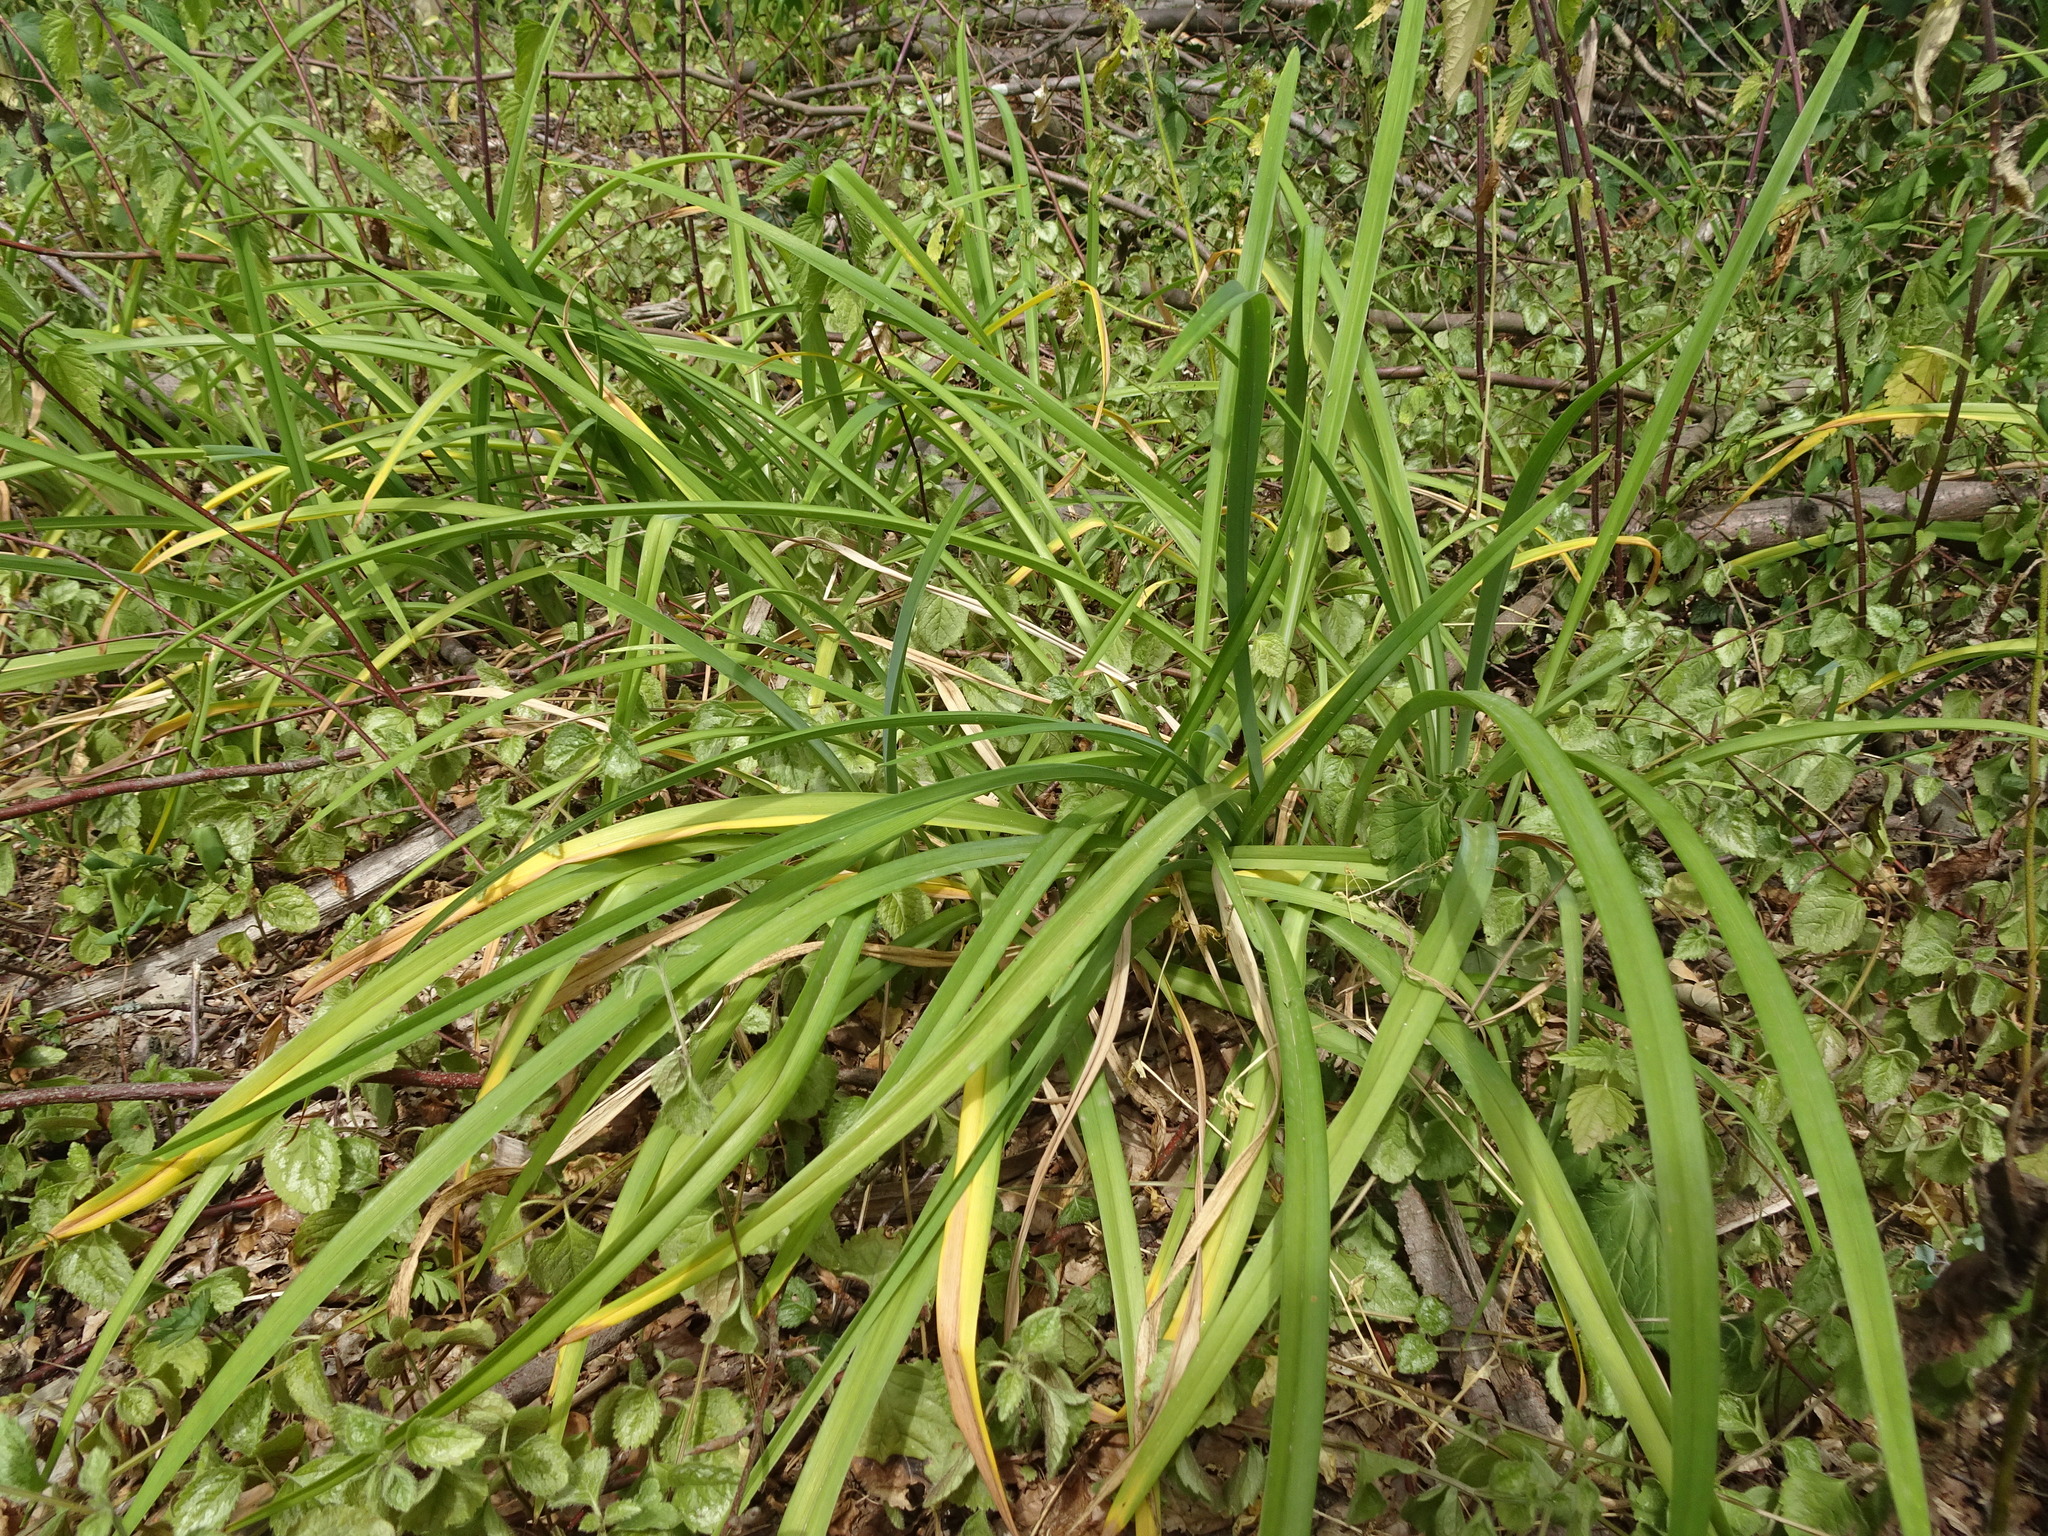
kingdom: Plantae
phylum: Tracheophyta
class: Liliopsida
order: Poales
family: Cyperaceae
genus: Carex
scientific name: Carex sylvatica
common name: Wood-sedge
